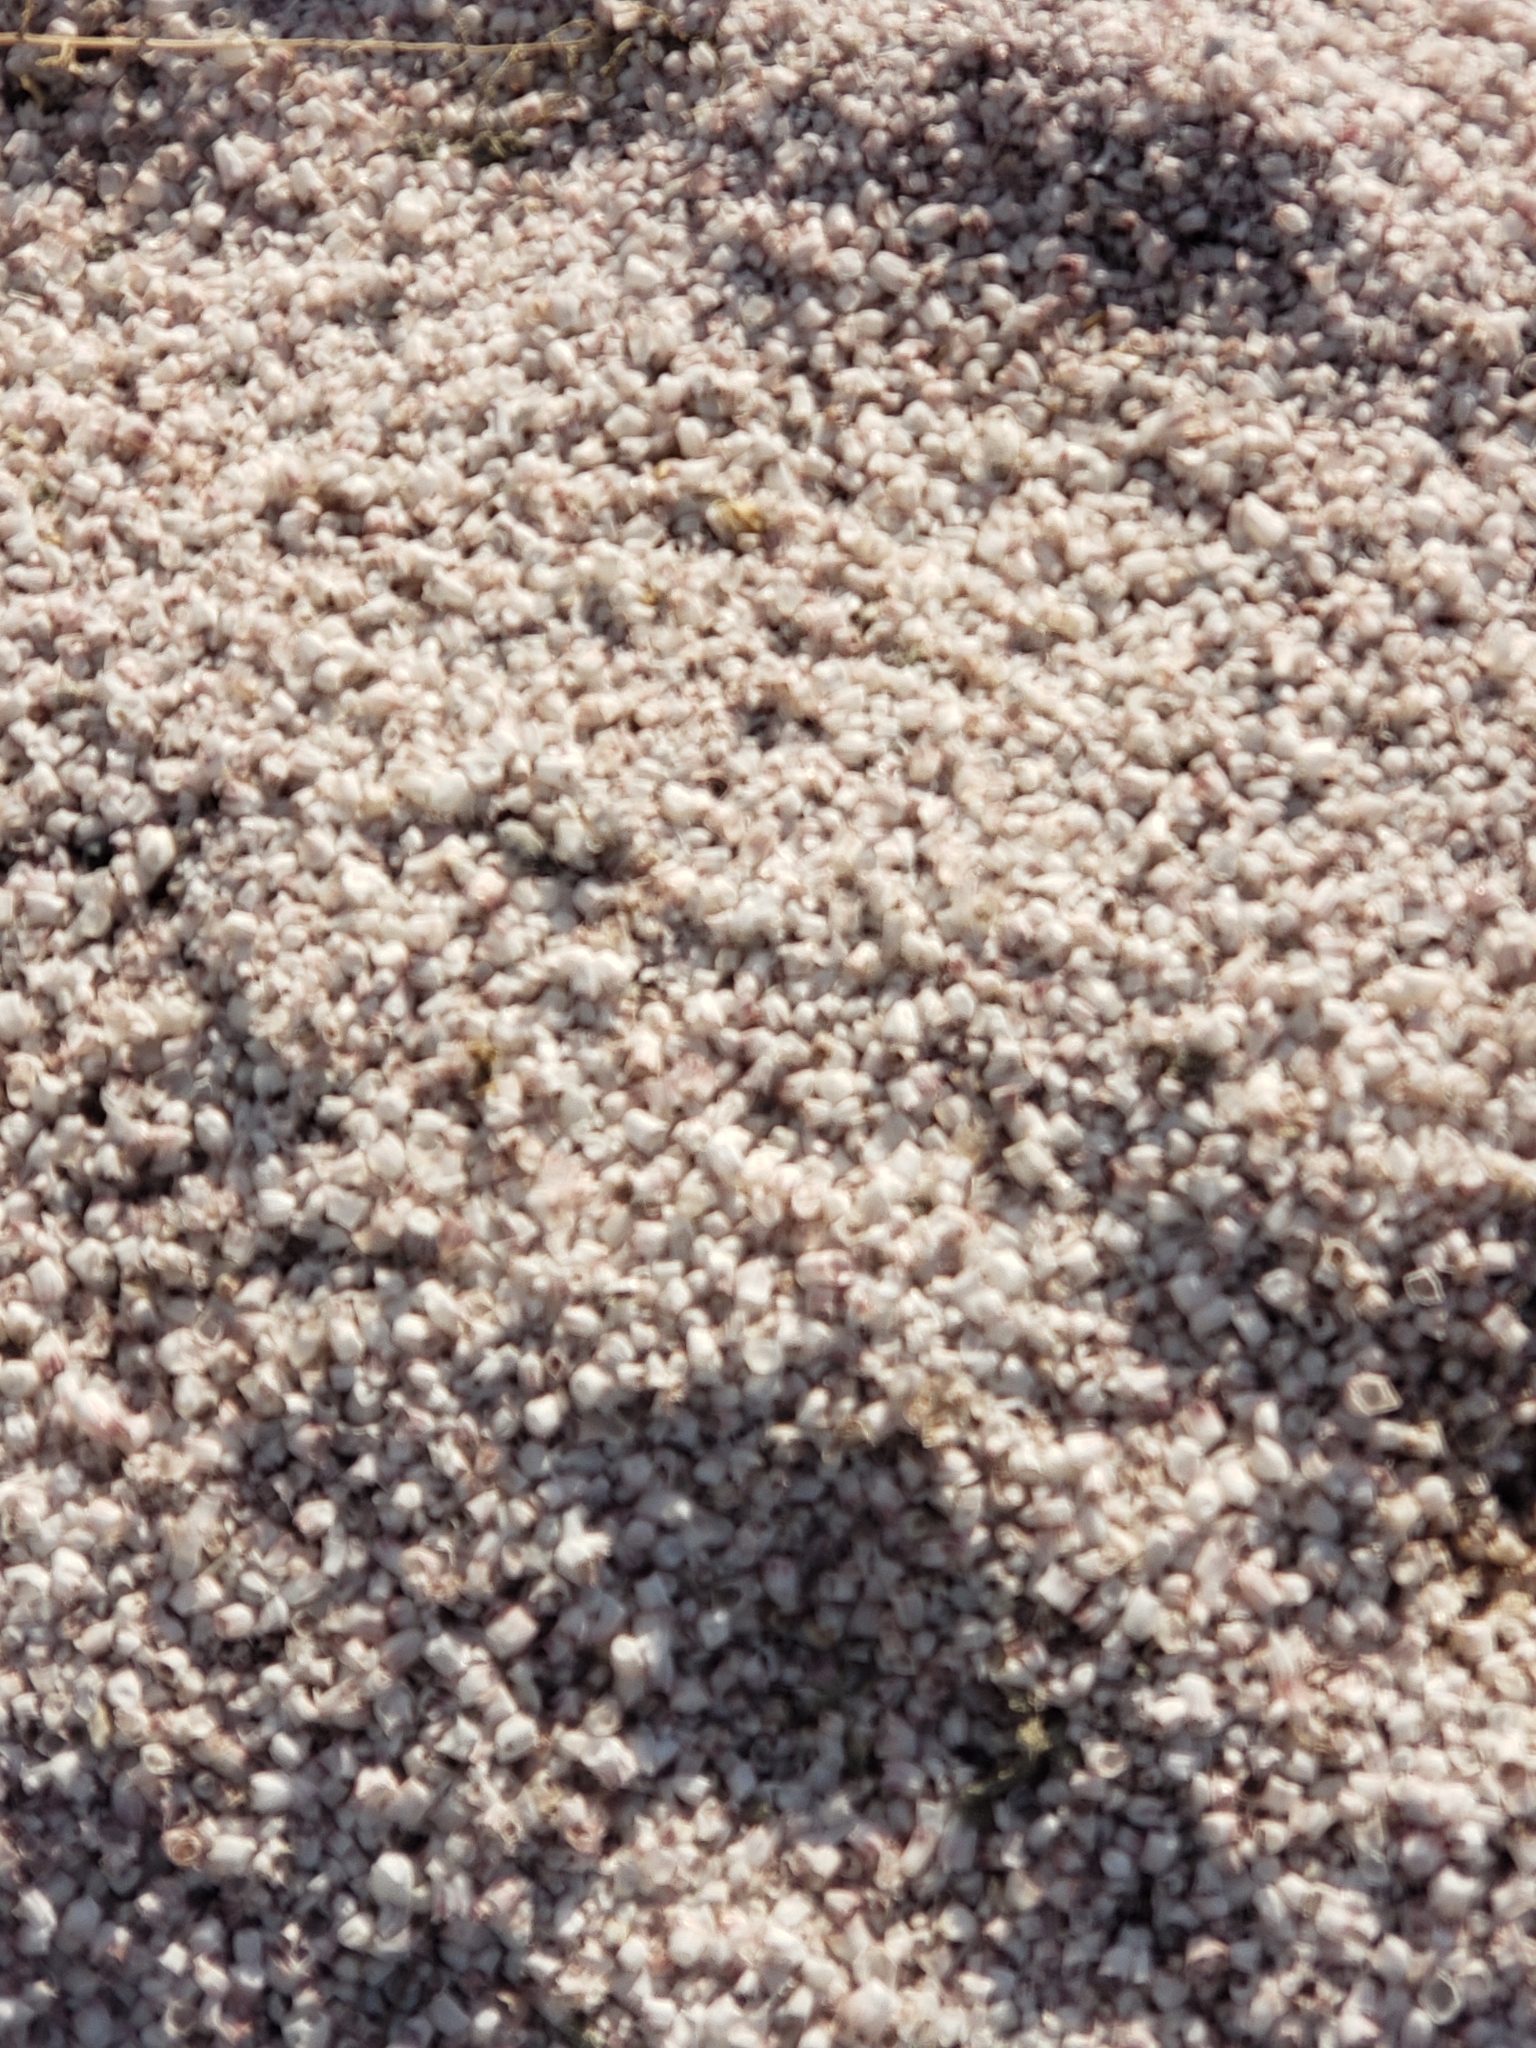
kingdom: Animalia
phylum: Arthropoda
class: Maxillopoda
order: Sessilia
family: Balanidae
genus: Amphibalanus
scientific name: Amphibalanus amphitrite
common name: Striped acorn barnacle
